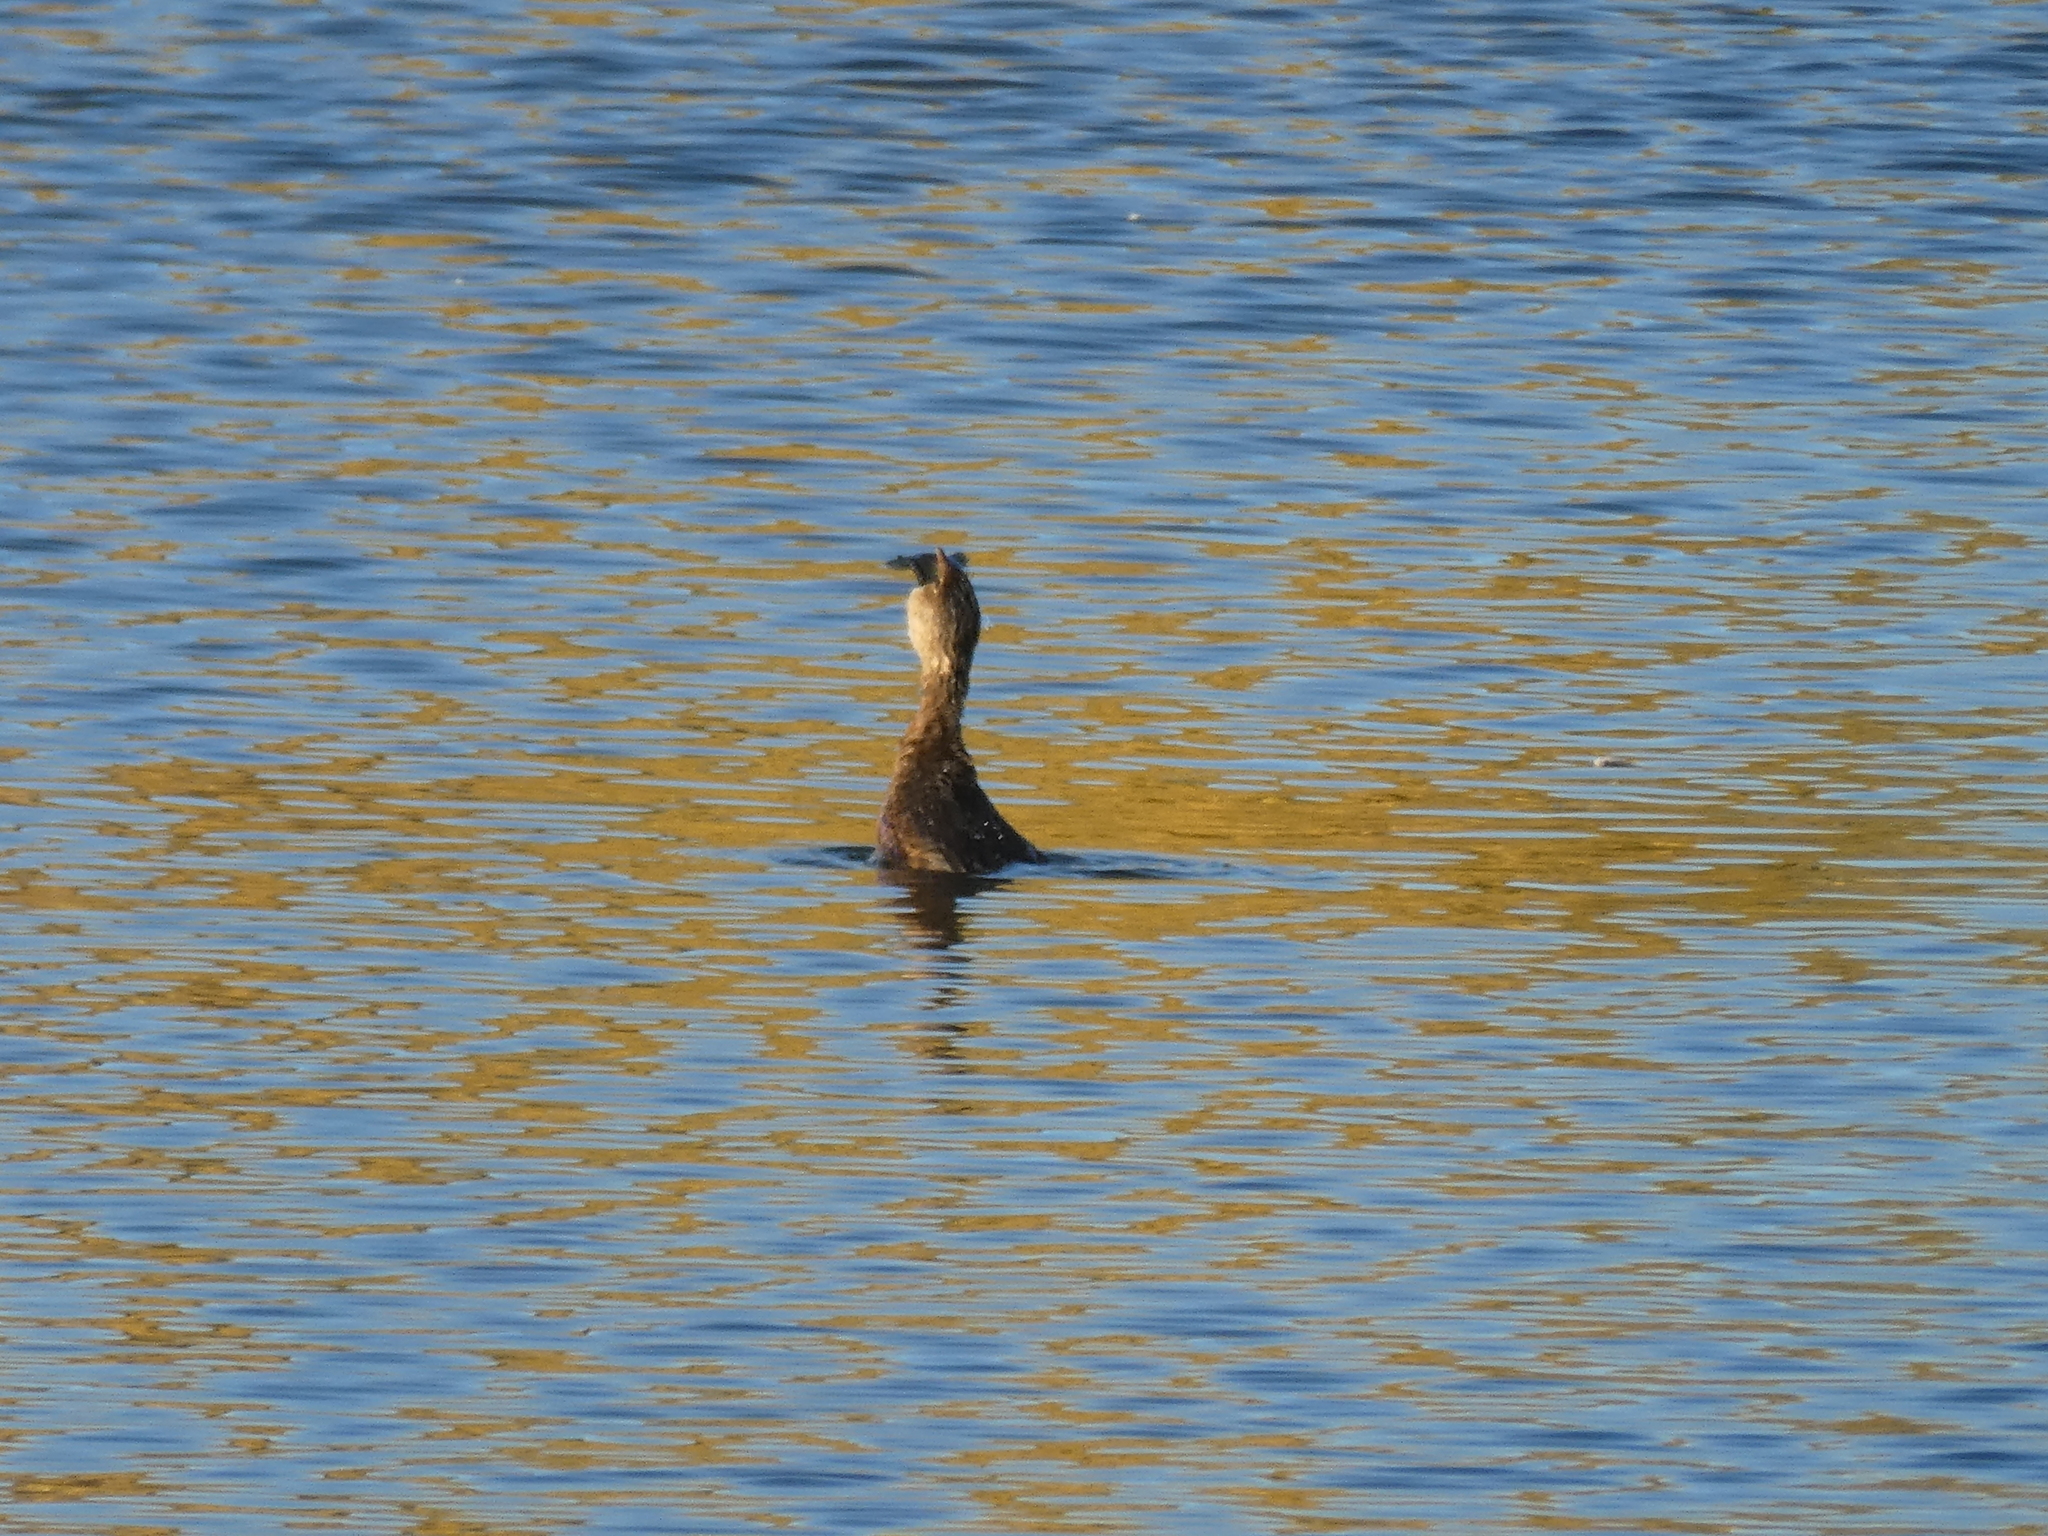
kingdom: Animalia
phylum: Chordata
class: Aves
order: Podicipediformes
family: Podicipedidae
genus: Podilymbus
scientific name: Podilymbus podiceps
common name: Pied-billed grebe
